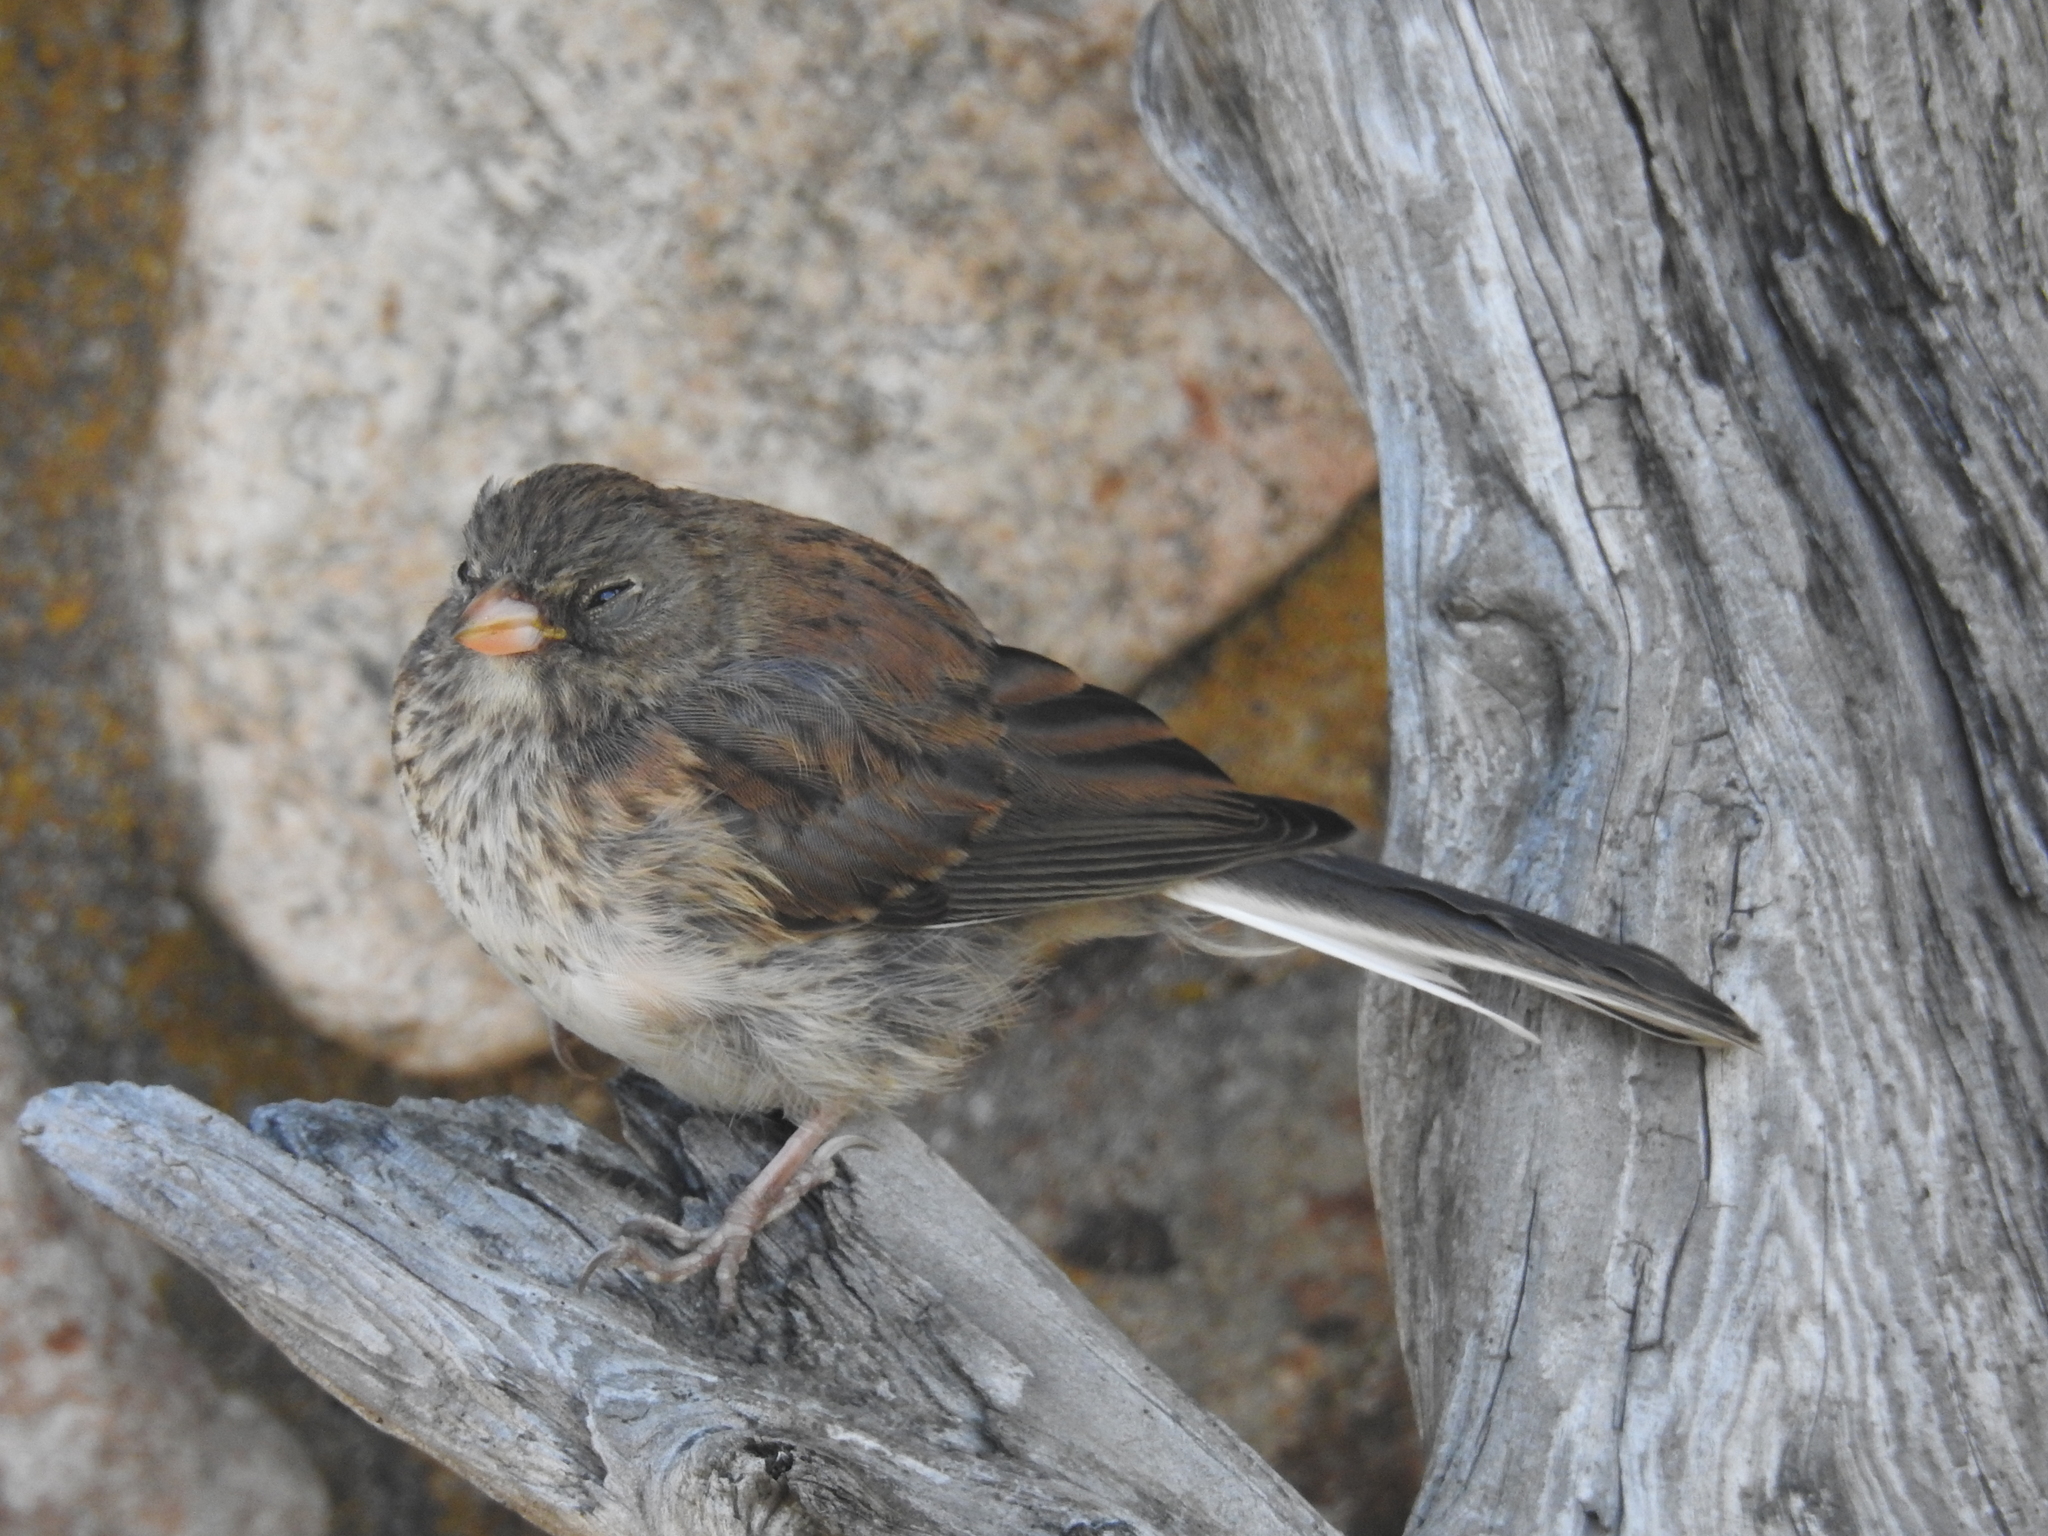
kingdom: Animalia
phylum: Chordata
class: Aves
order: Passeriformes
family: Passerellidae
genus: Junco
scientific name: Junco hyemalis
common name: Dark-eyed junco
